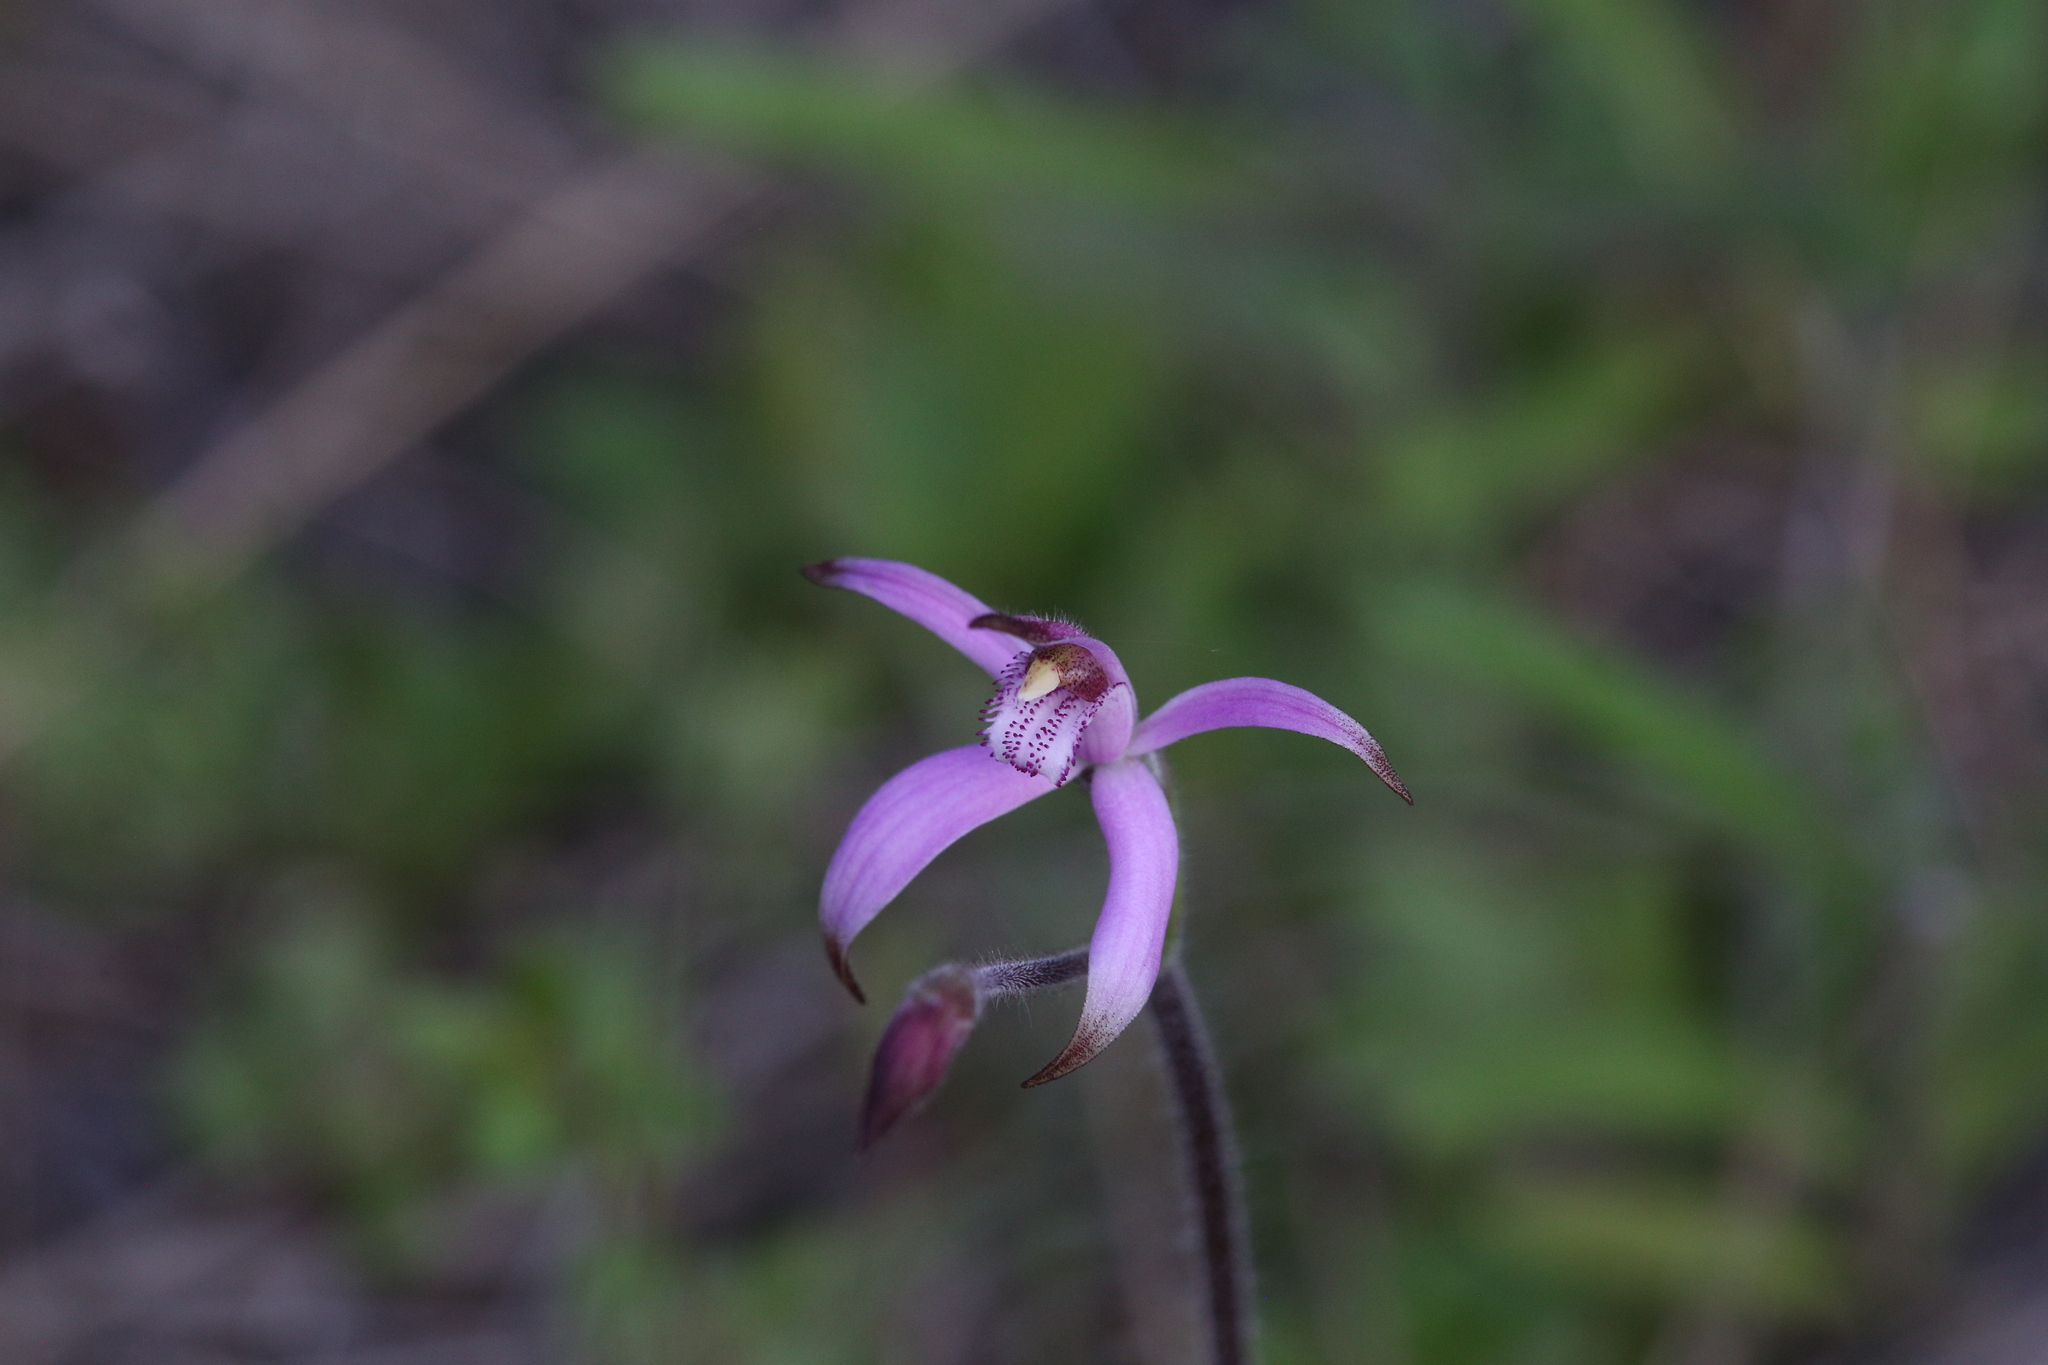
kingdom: Plantae
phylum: Tracheophyta
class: Liliopsida
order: Asparagales
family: Orchidaceae
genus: Caladenia
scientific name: Caladenia hirta
